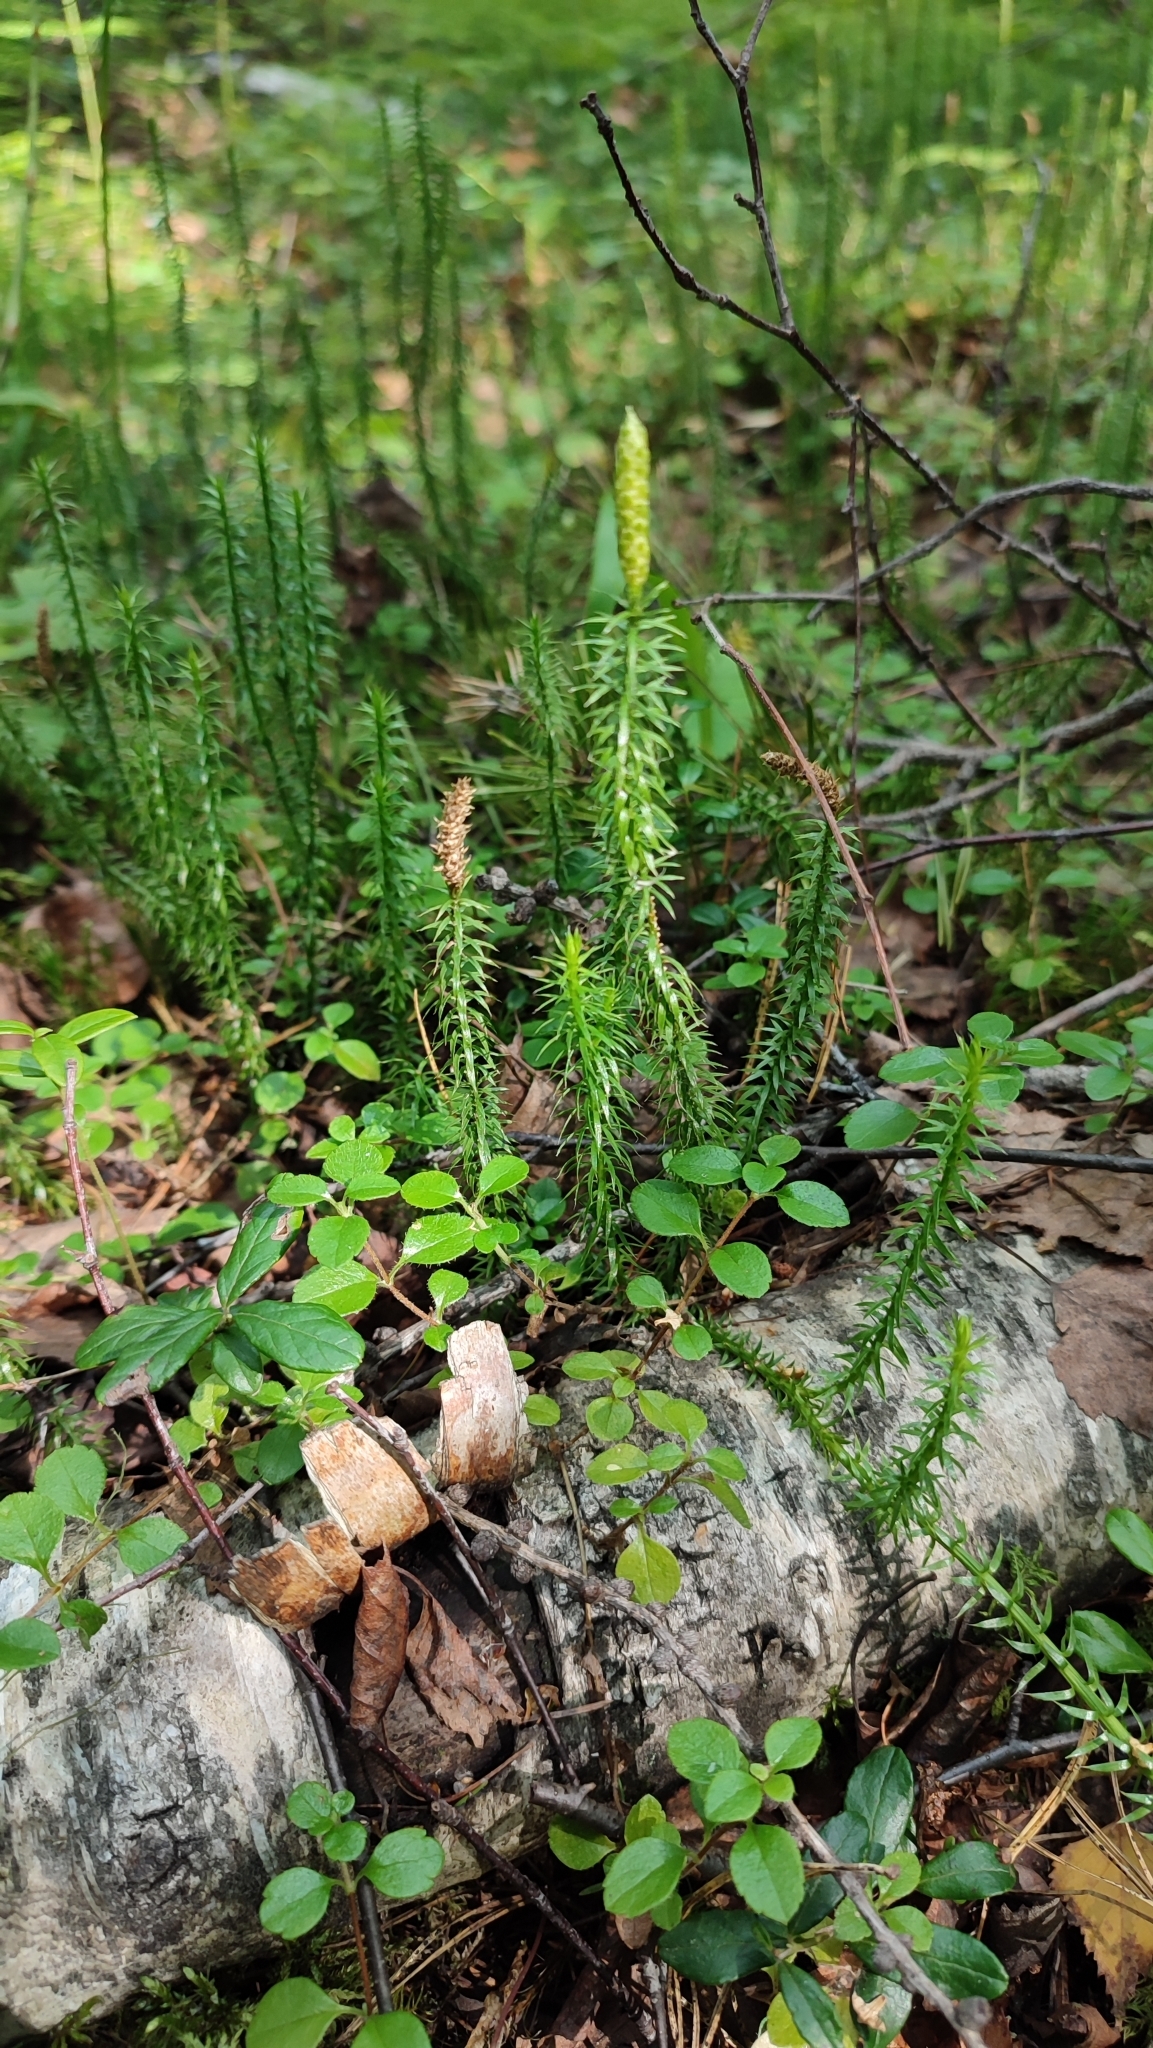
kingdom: Plantae
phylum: Tracheophyta
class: Lycopodiopsida
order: Lycopodiales
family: Lycopodiaceae
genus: Spinulum
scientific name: Spinulum annotinum
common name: Interrupted club-moss
